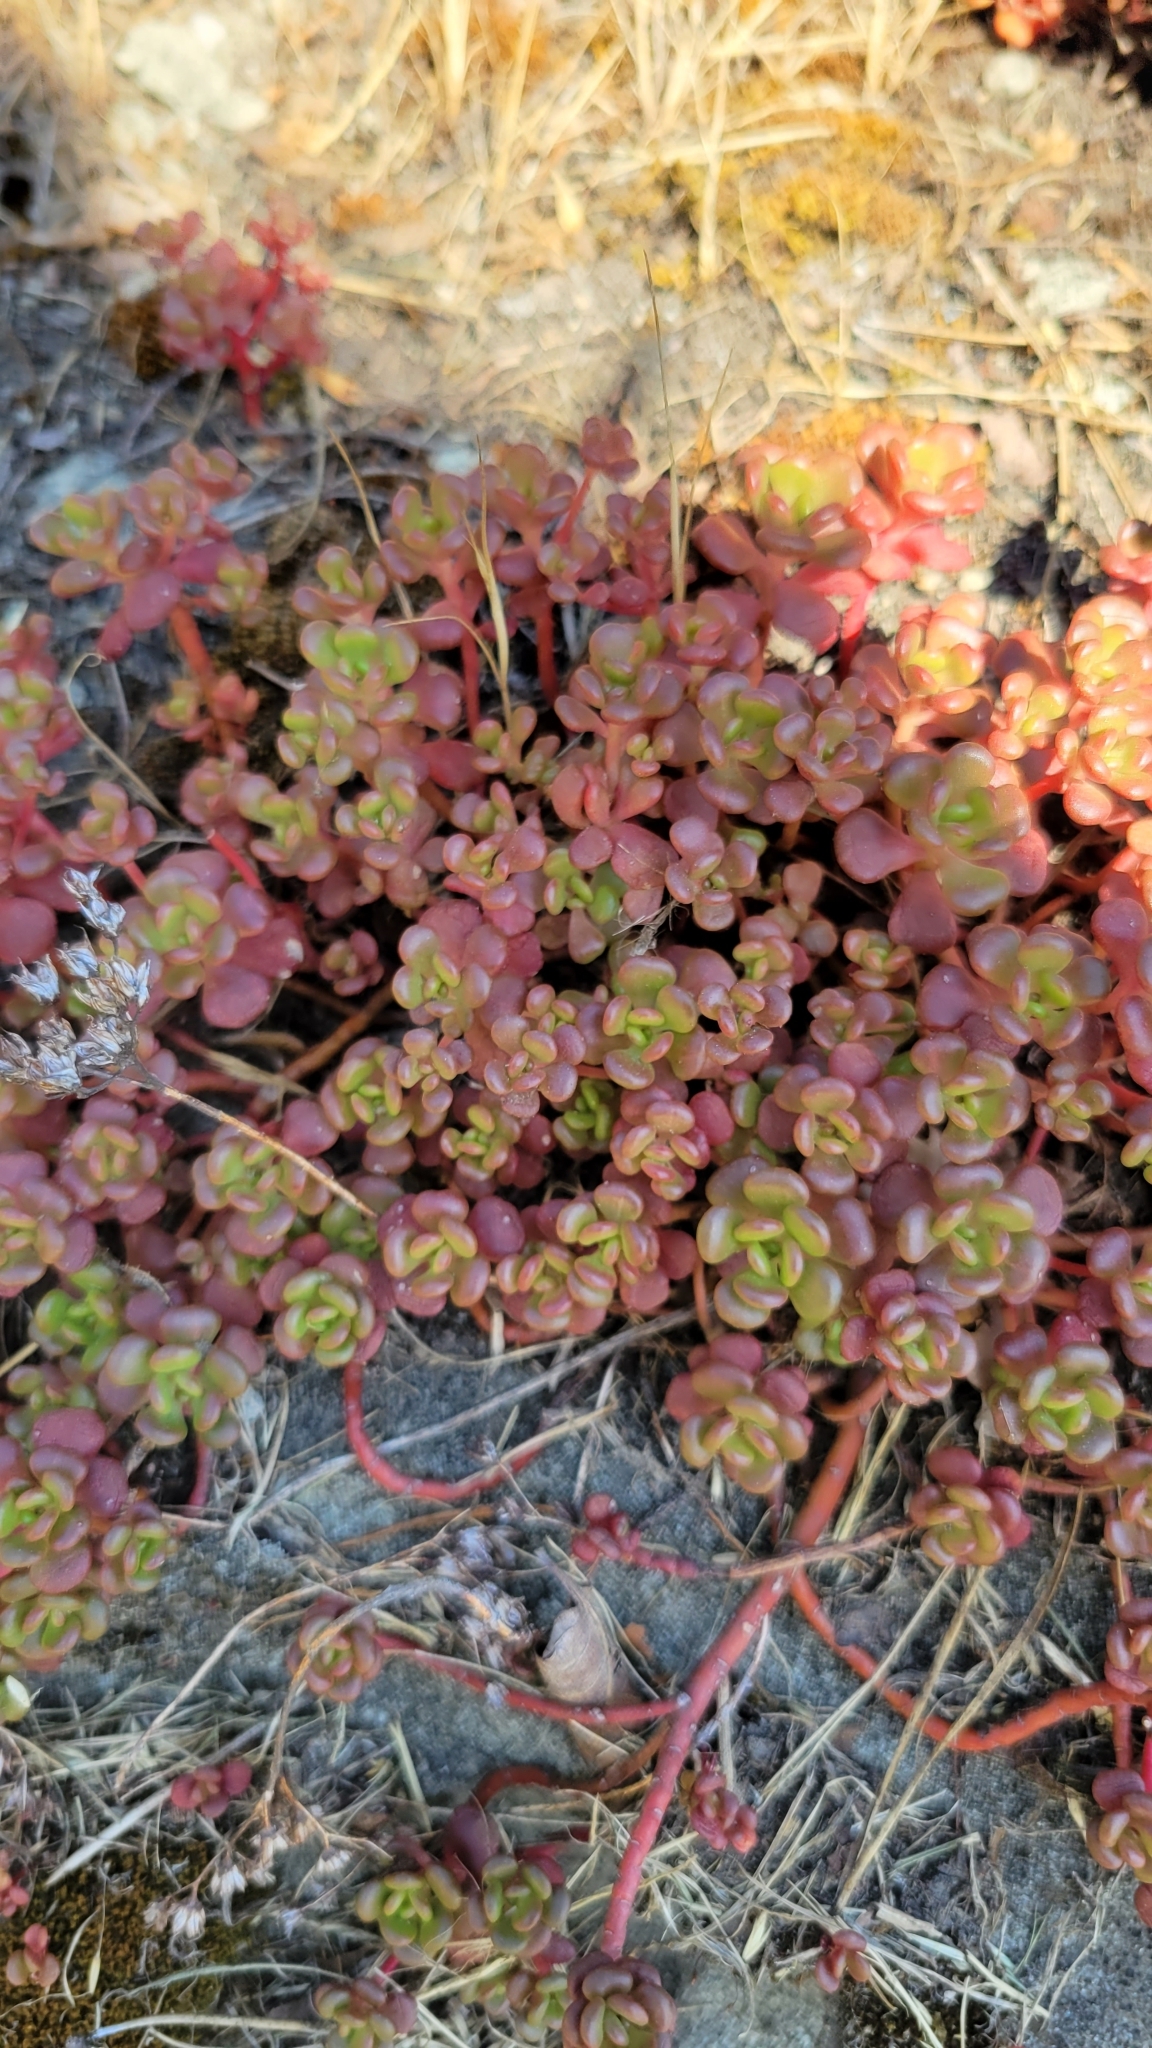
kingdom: Plantae
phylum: Tracheophyta
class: Magnoliopsida
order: Saxifragales
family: Crassulaceae
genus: Sedum
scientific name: Sedum oreganum
